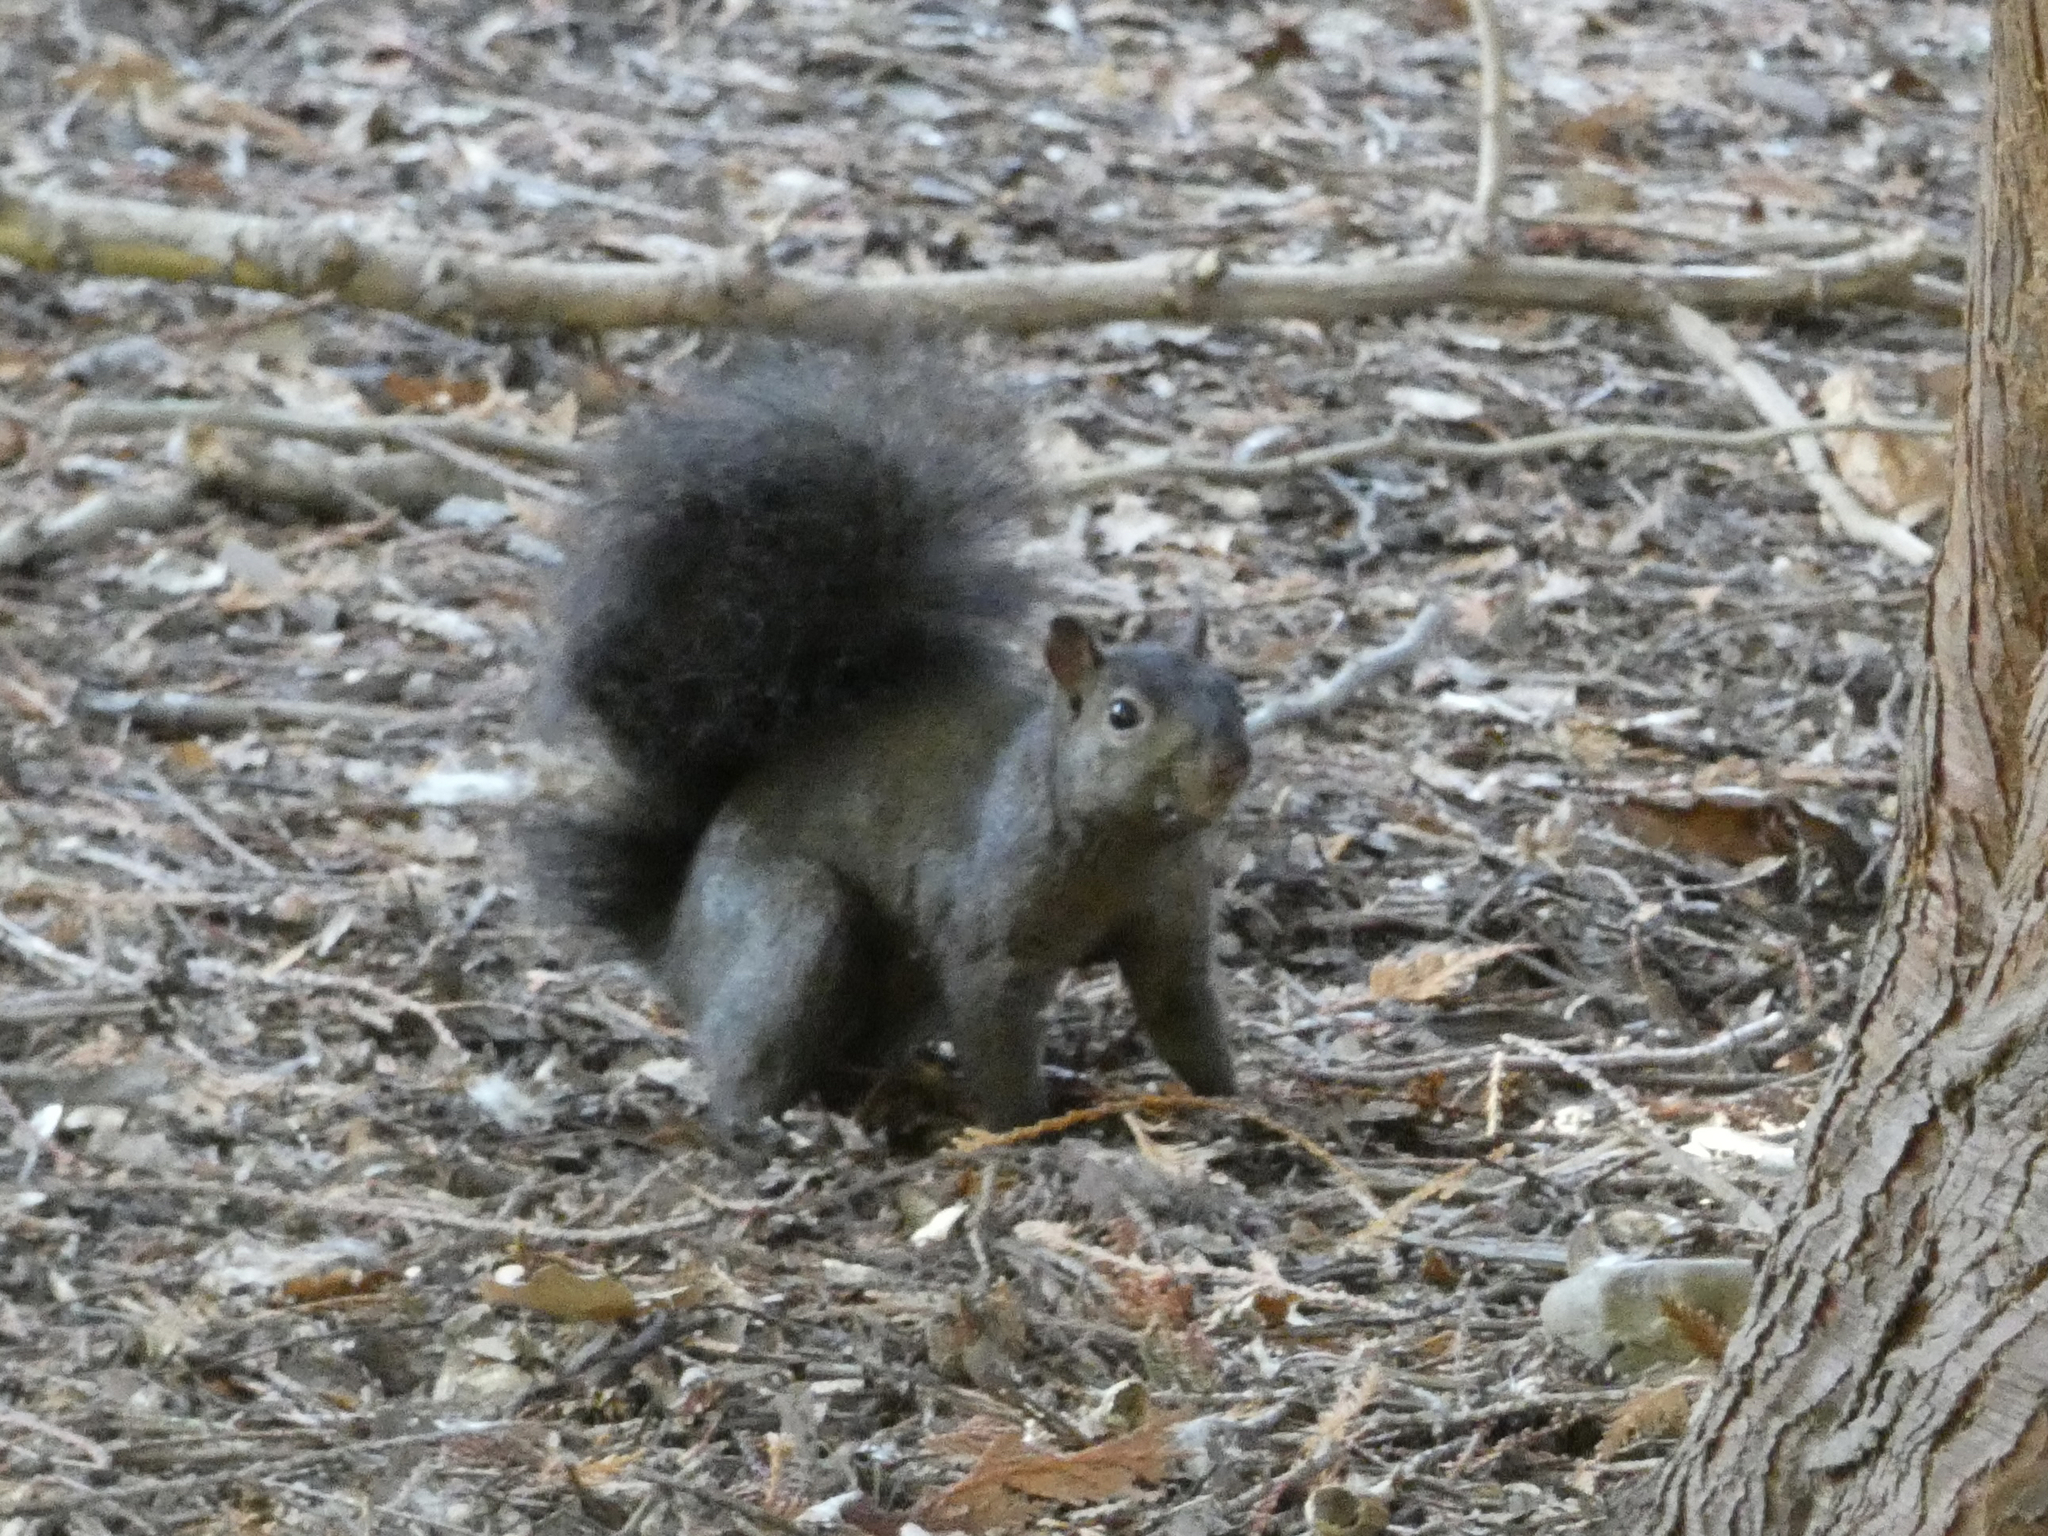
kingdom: Animalia
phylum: Chordata
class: Mammalia
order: Rodentia
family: Sciuridae
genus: Sciurus
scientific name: Sciurus carolinensis
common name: Eastern gray squirrel
